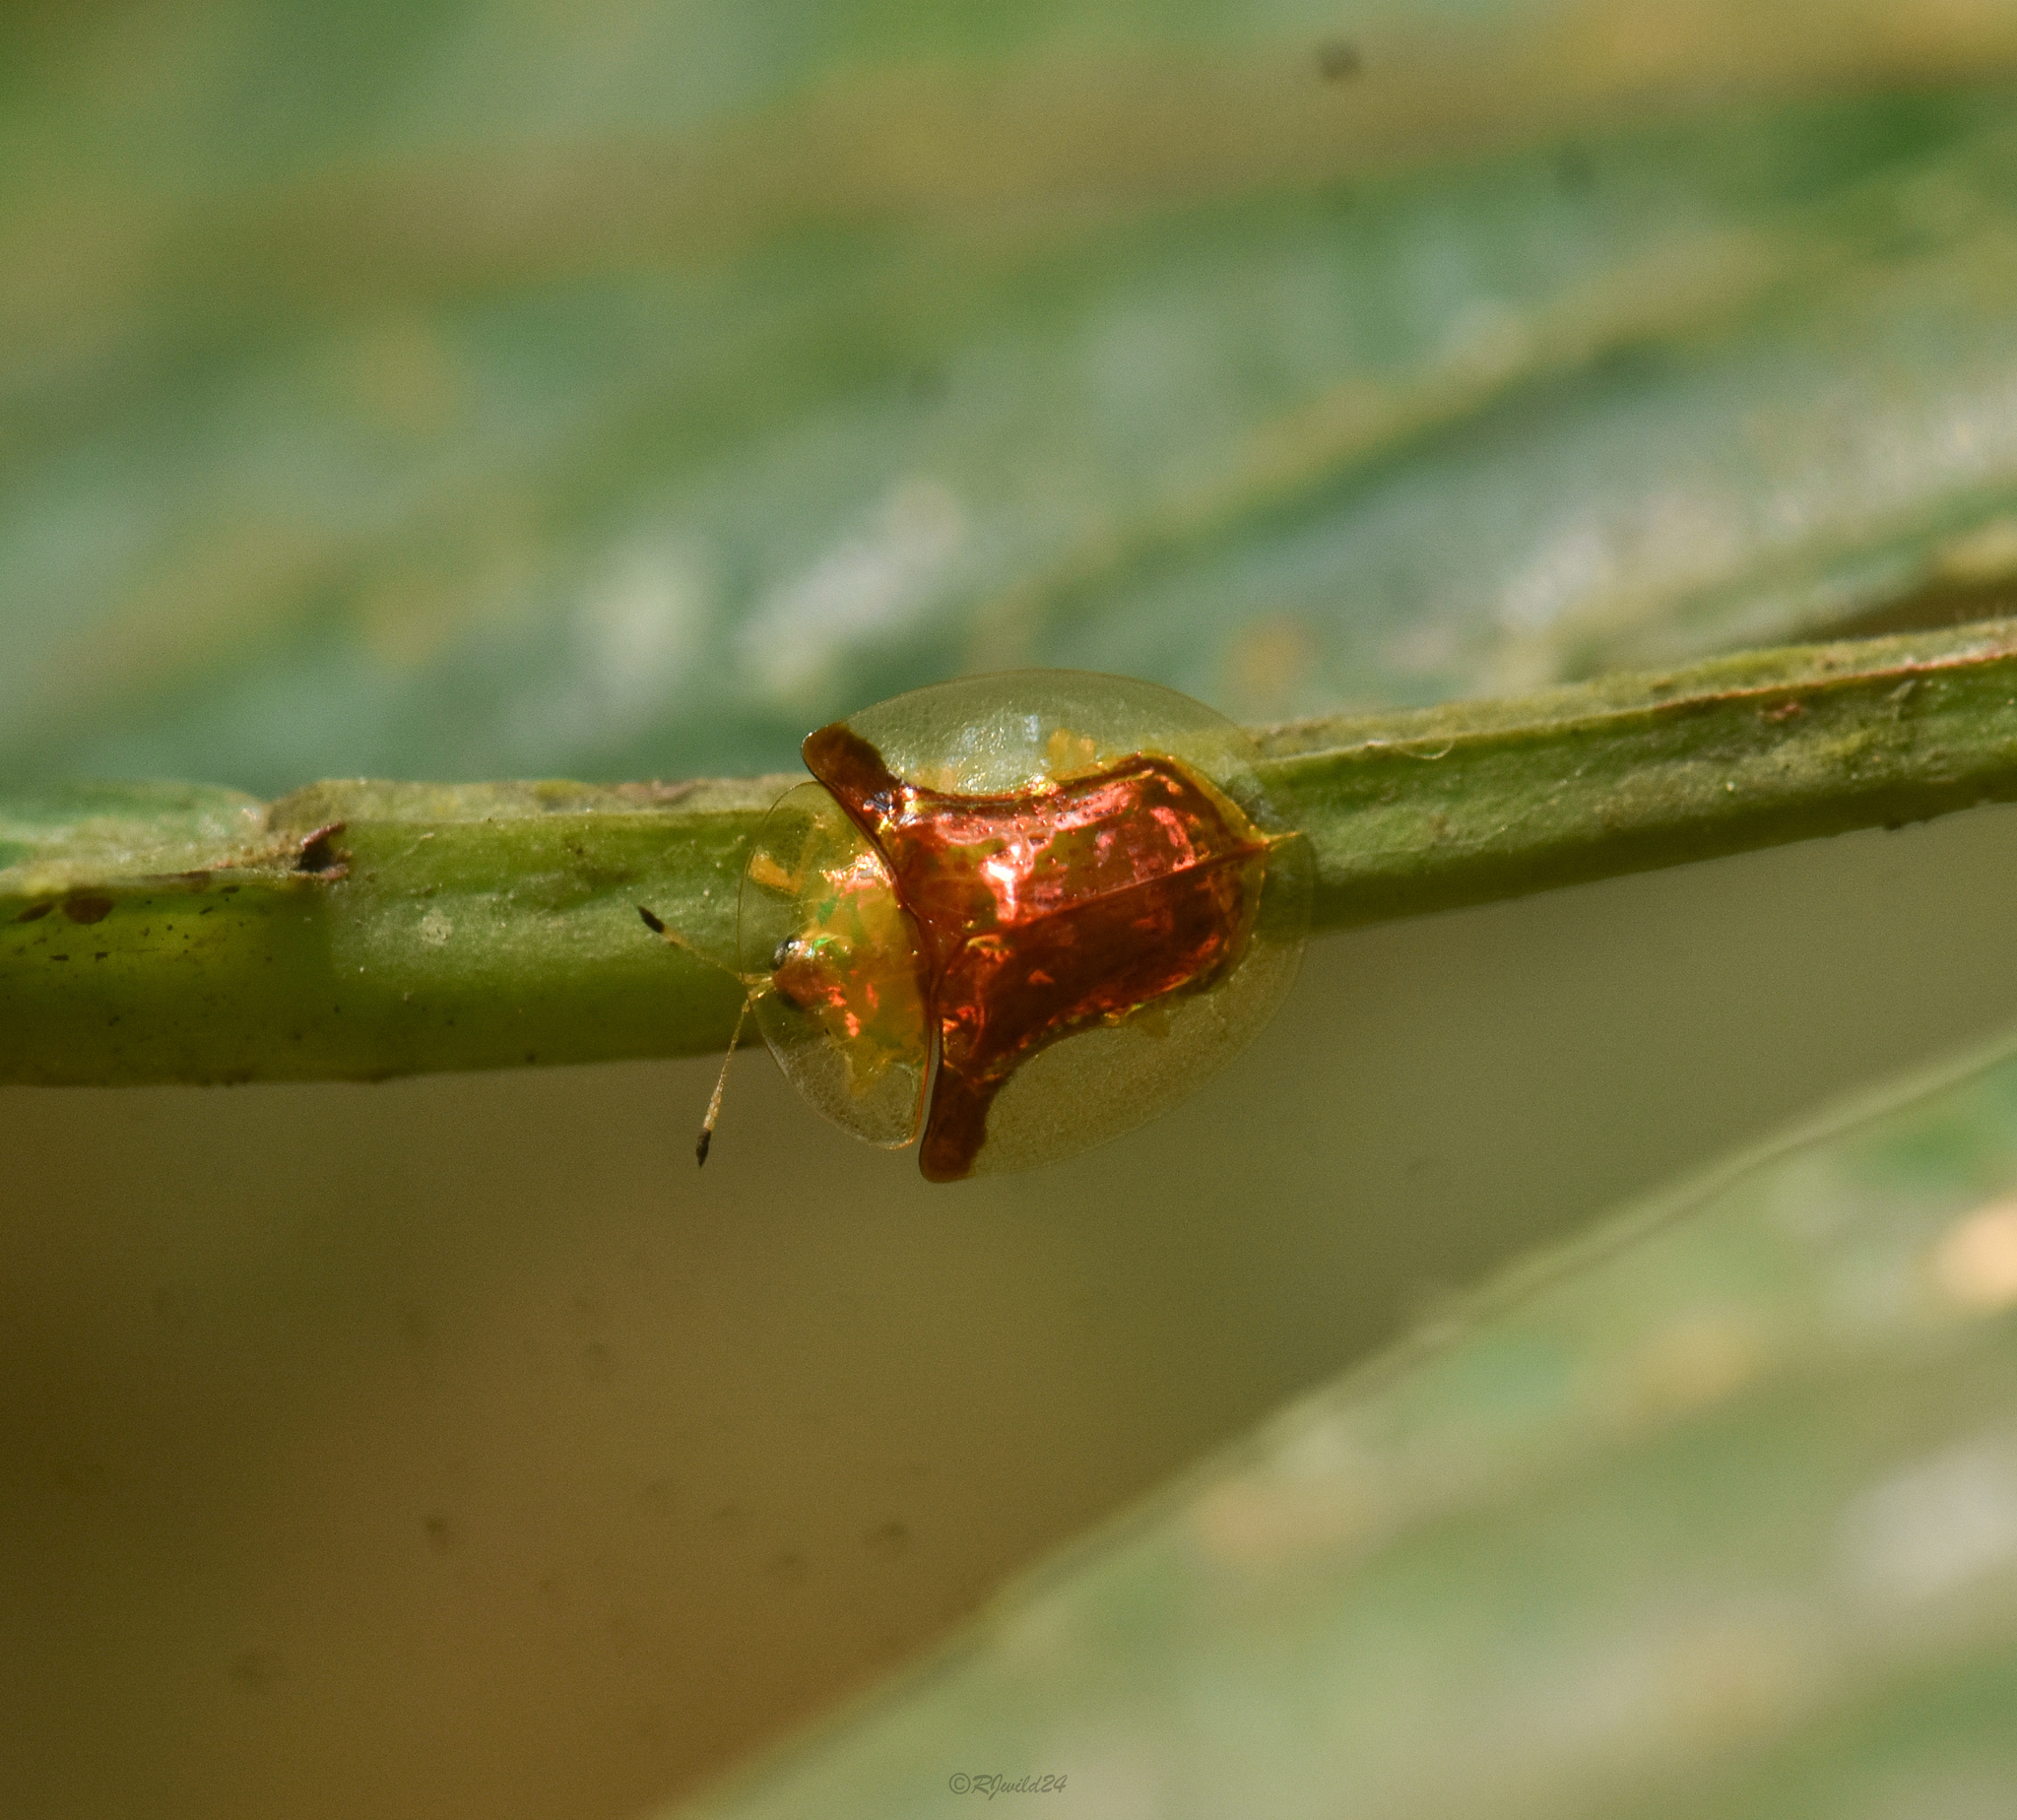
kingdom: Animalia
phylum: Arthropoda
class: Insecta
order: Coleoptera
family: Chrysomelidae
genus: Aspidimorpha
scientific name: Aspidimorpha furcata
